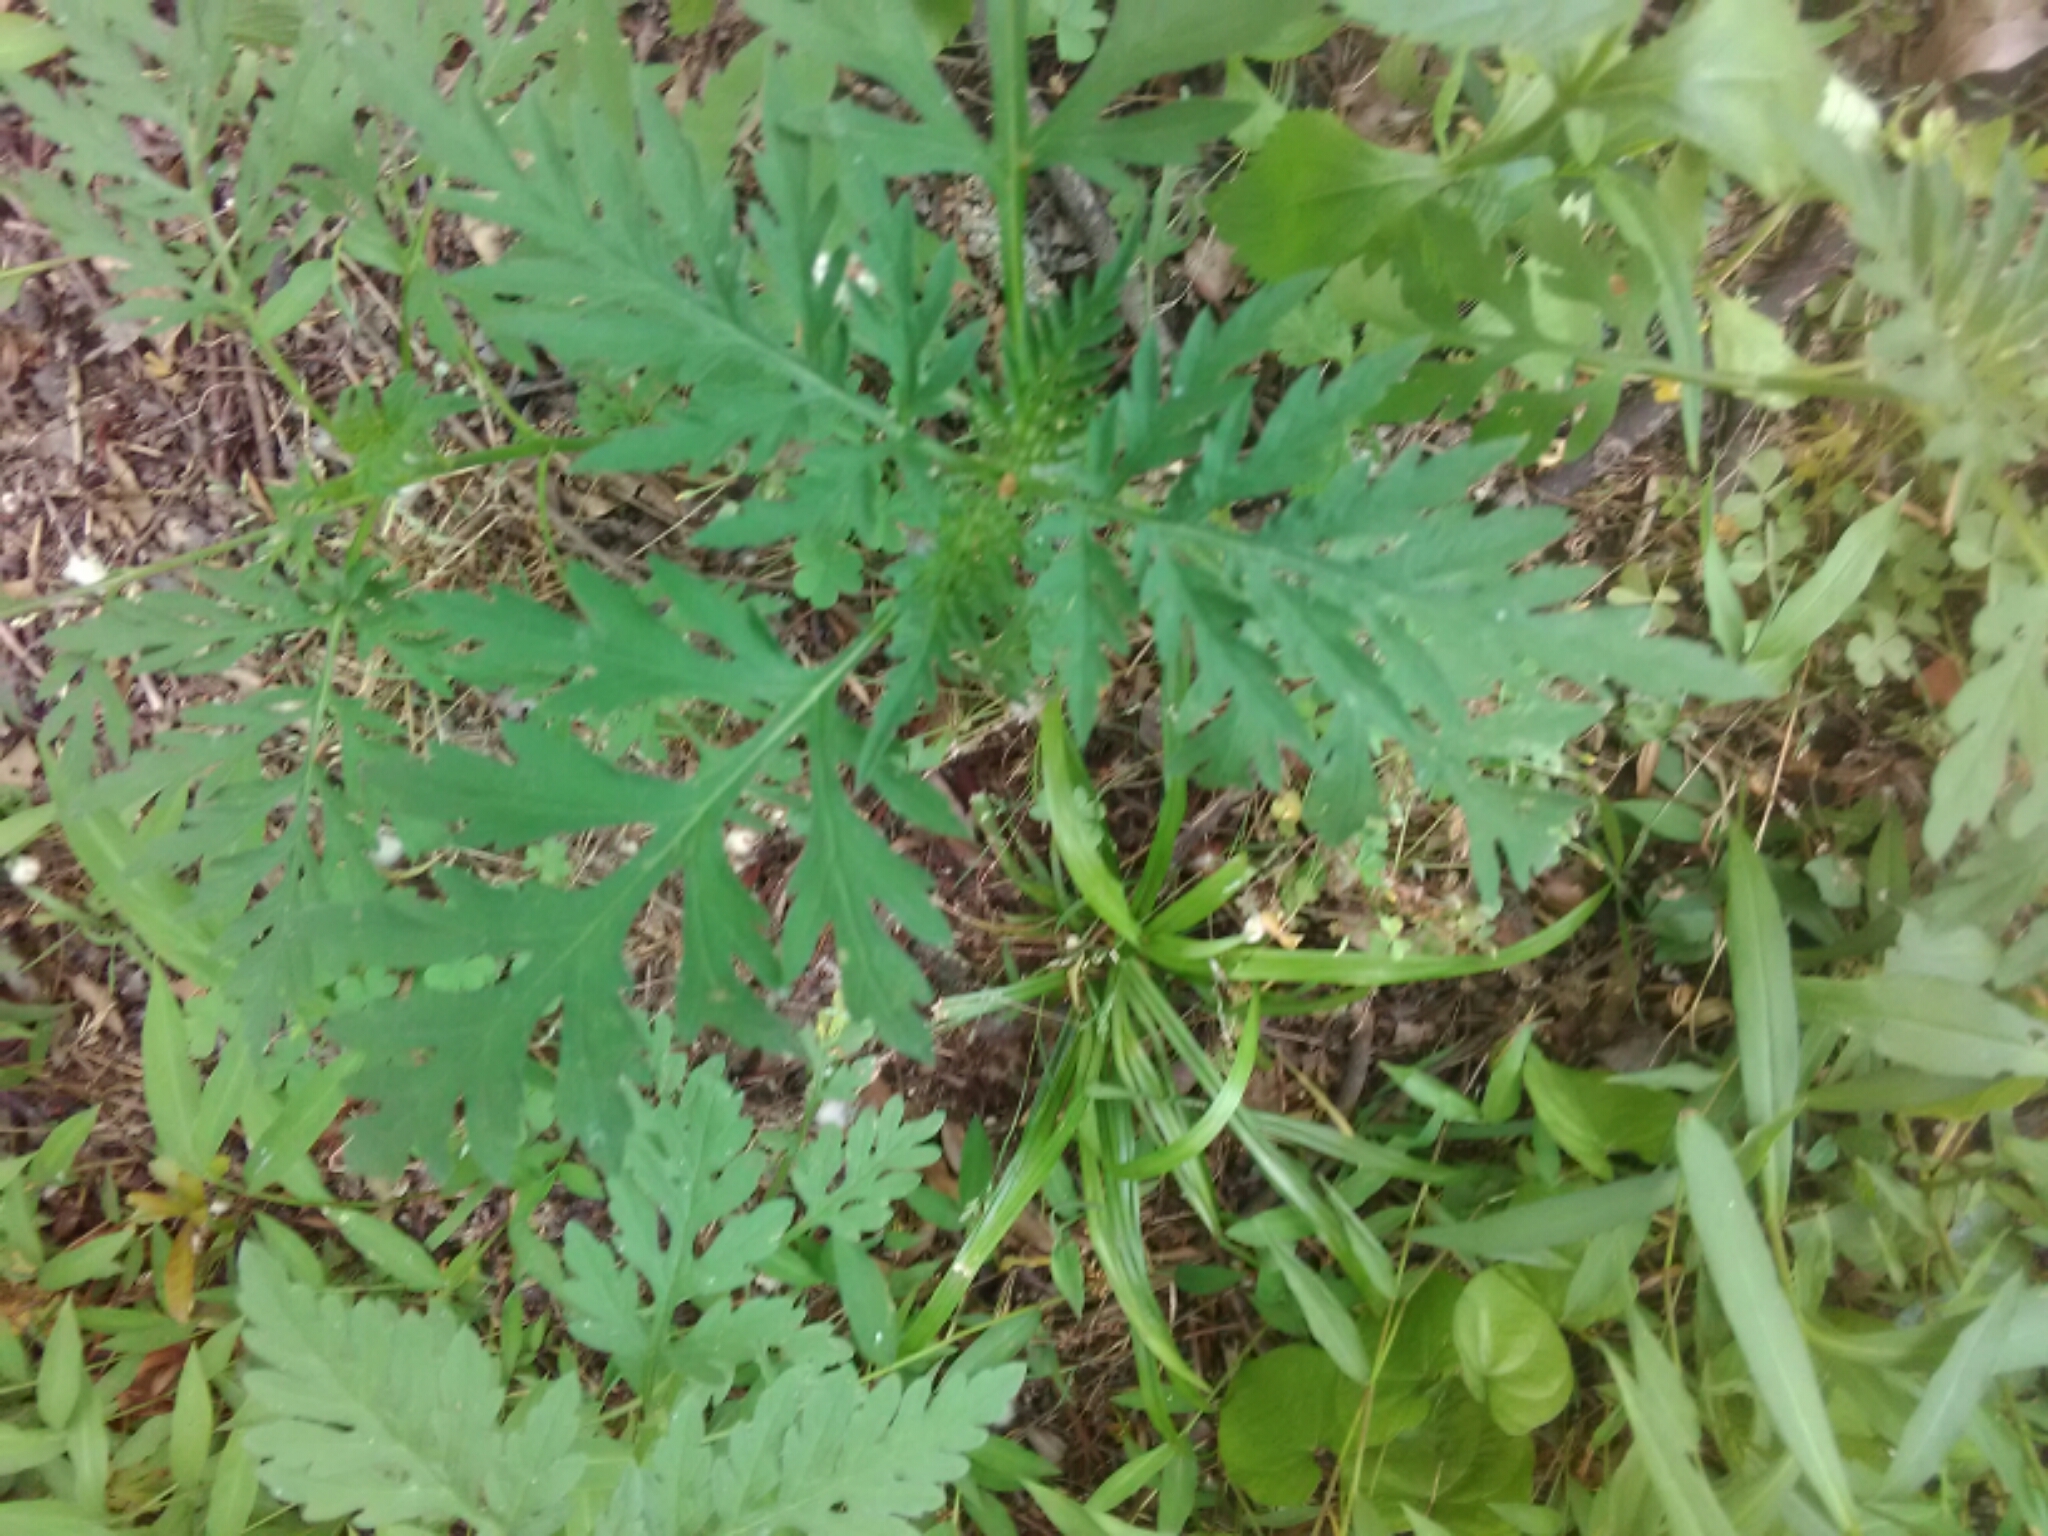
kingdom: Plantae
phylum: Tracheophyta
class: Magnoliopsida
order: Asterales
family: Asteraceae
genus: Ambrosia
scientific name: Ambrosia artemisiifolia
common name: Annual ragweed
